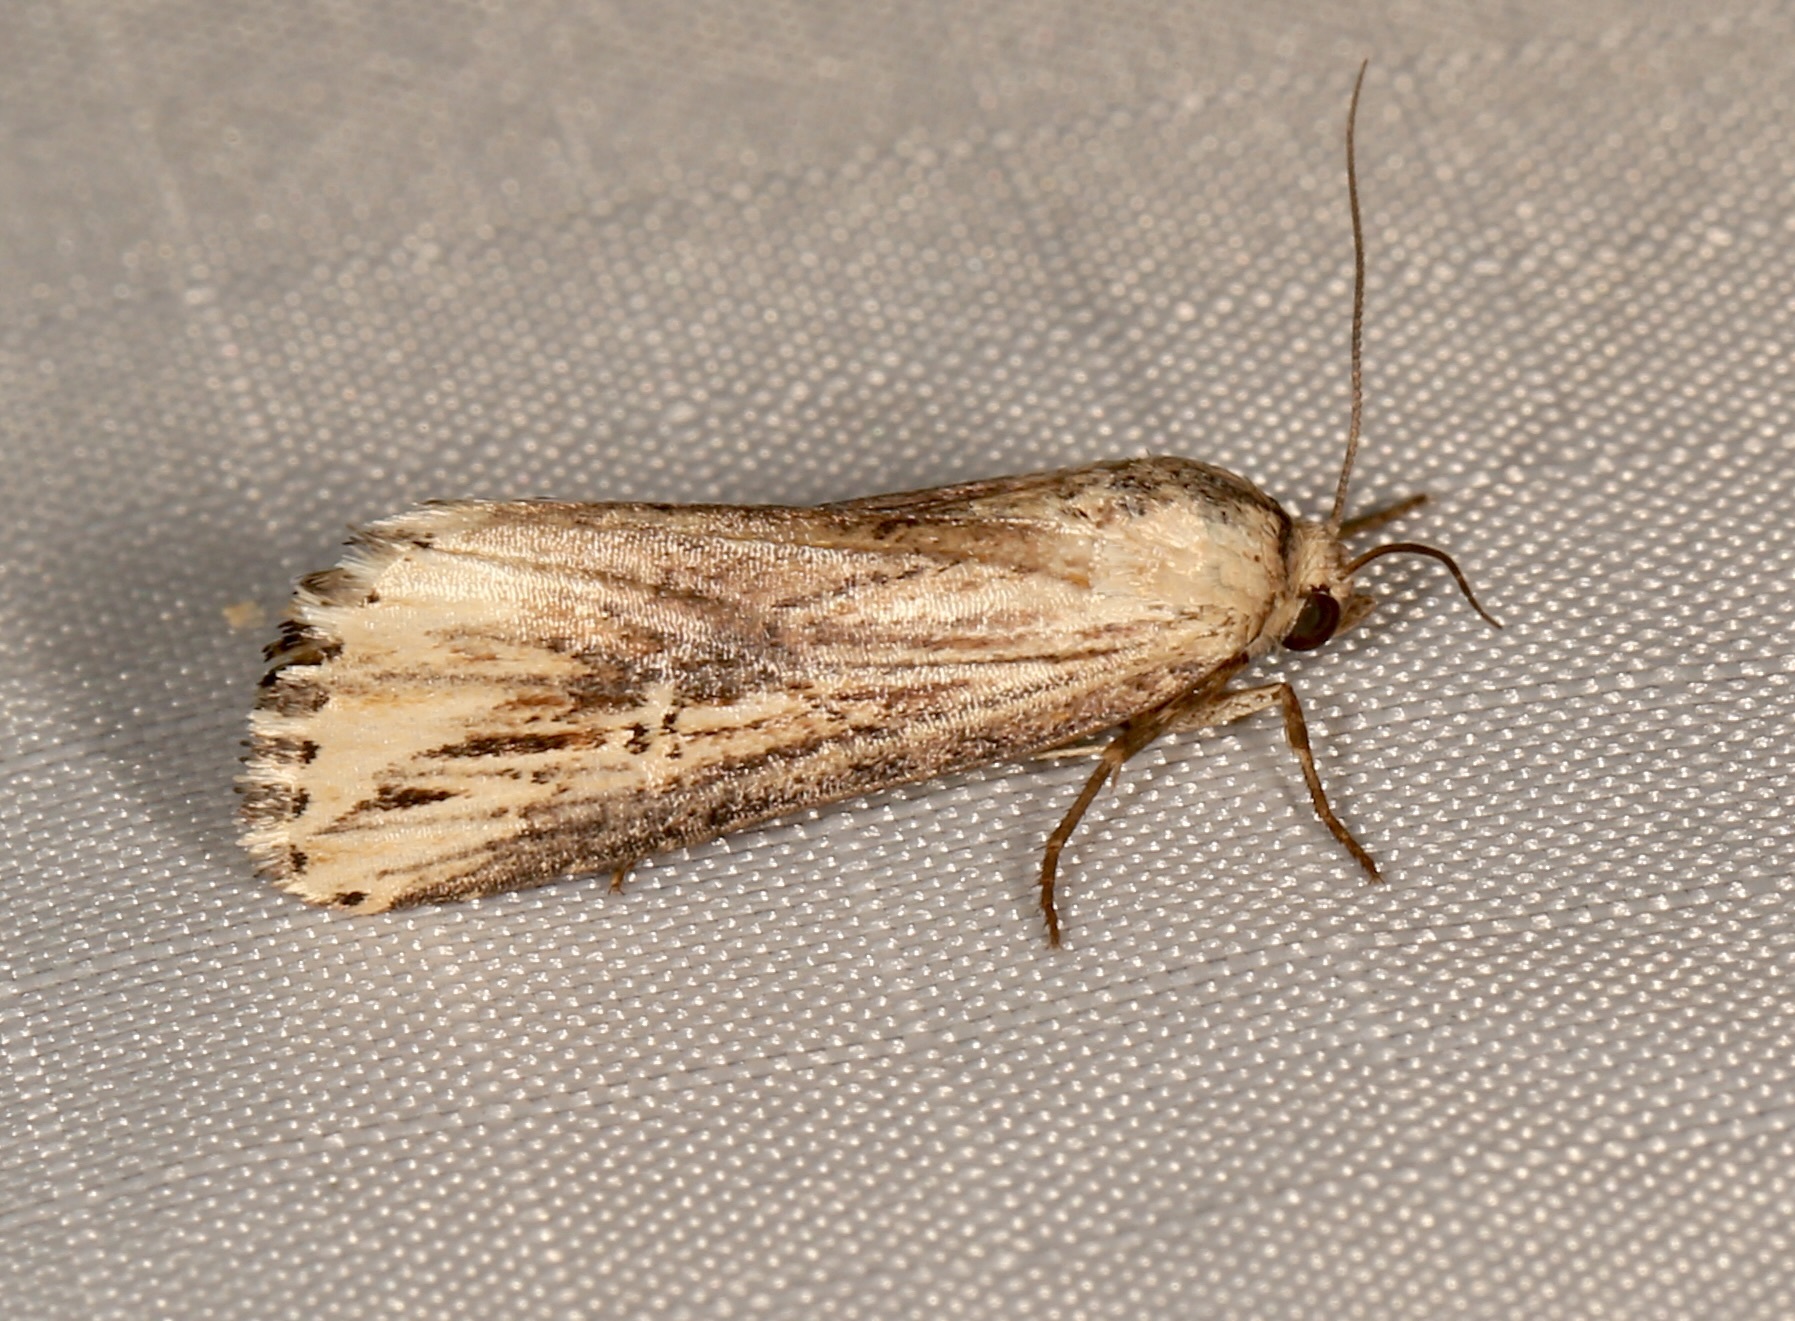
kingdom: Animalia
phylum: Arthropoda
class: Insecta
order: Lepidoptera
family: Noctuidae
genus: Crambodes
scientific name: Crambodes talidiformis
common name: Verbena moth
